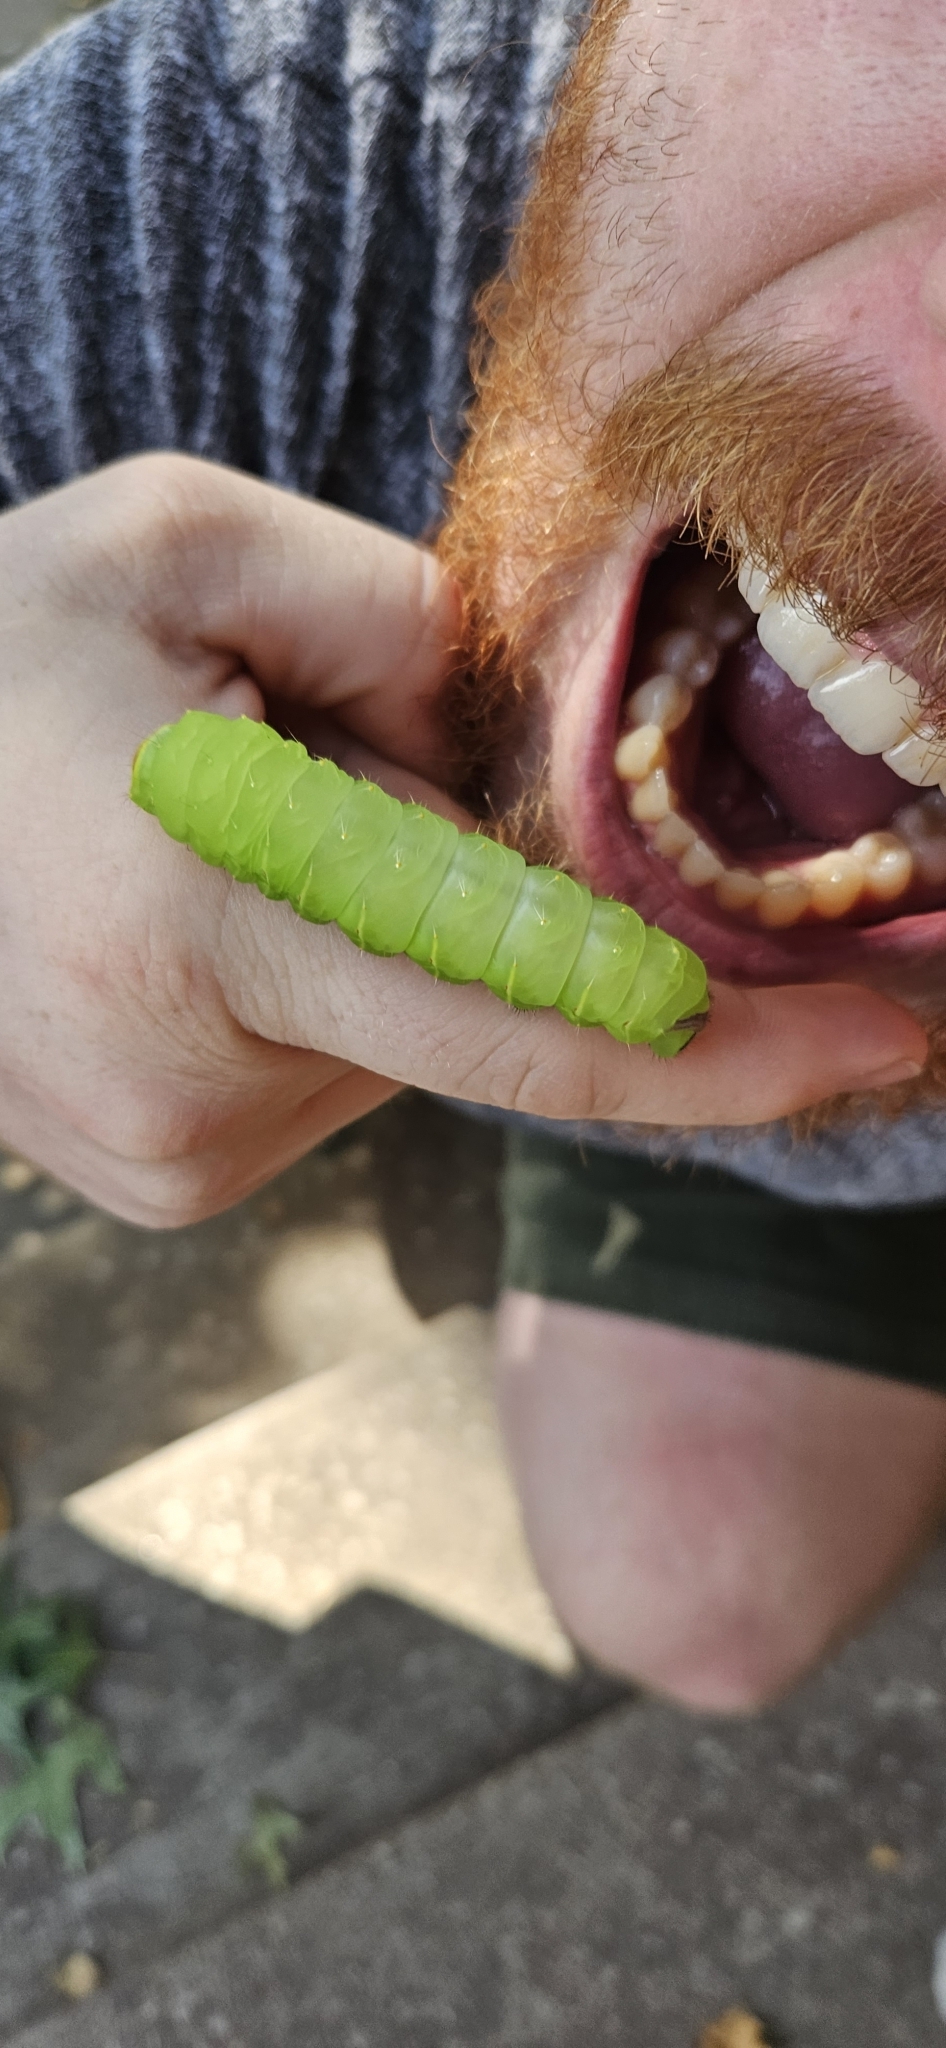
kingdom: Animalia
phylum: Arthropoda
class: Insecta
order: Lepidoptera
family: Saturniidae
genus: Antheraea
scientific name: Antheraea polyphemus
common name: Polyphemus moth
